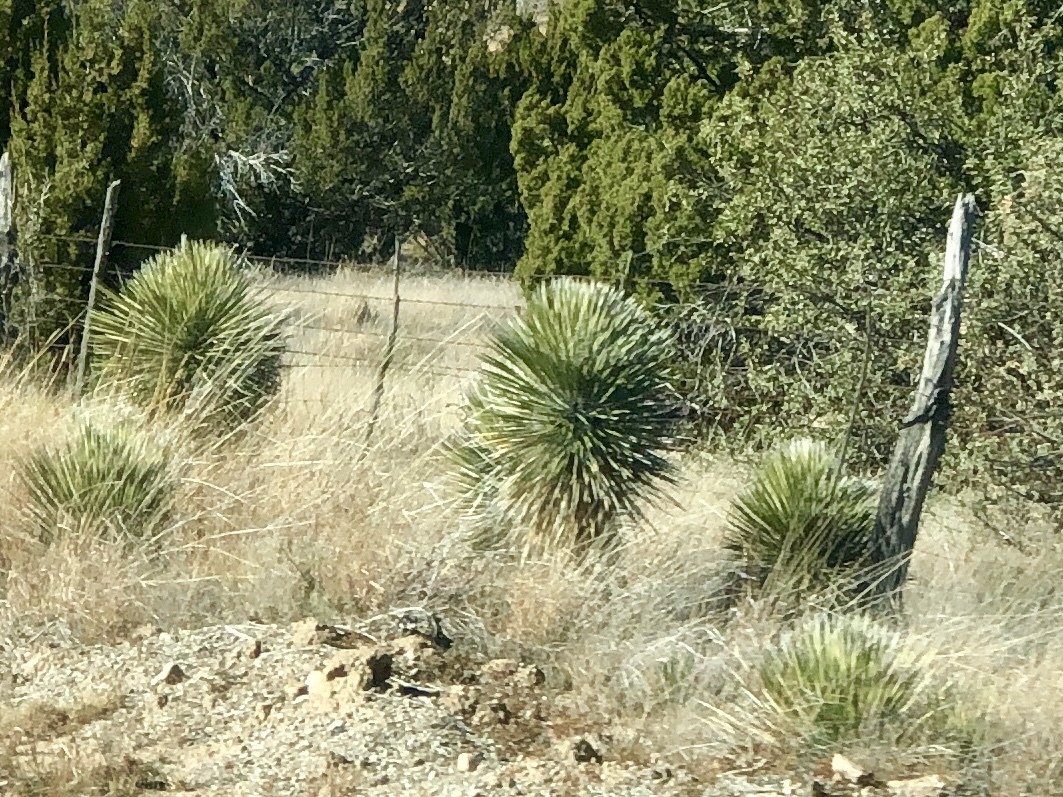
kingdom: Plantae
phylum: Tracheophyta
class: Liliopsida
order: Asparagales
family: Asparagaceae
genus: Yucca
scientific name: Yucca elata
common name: Palmella
